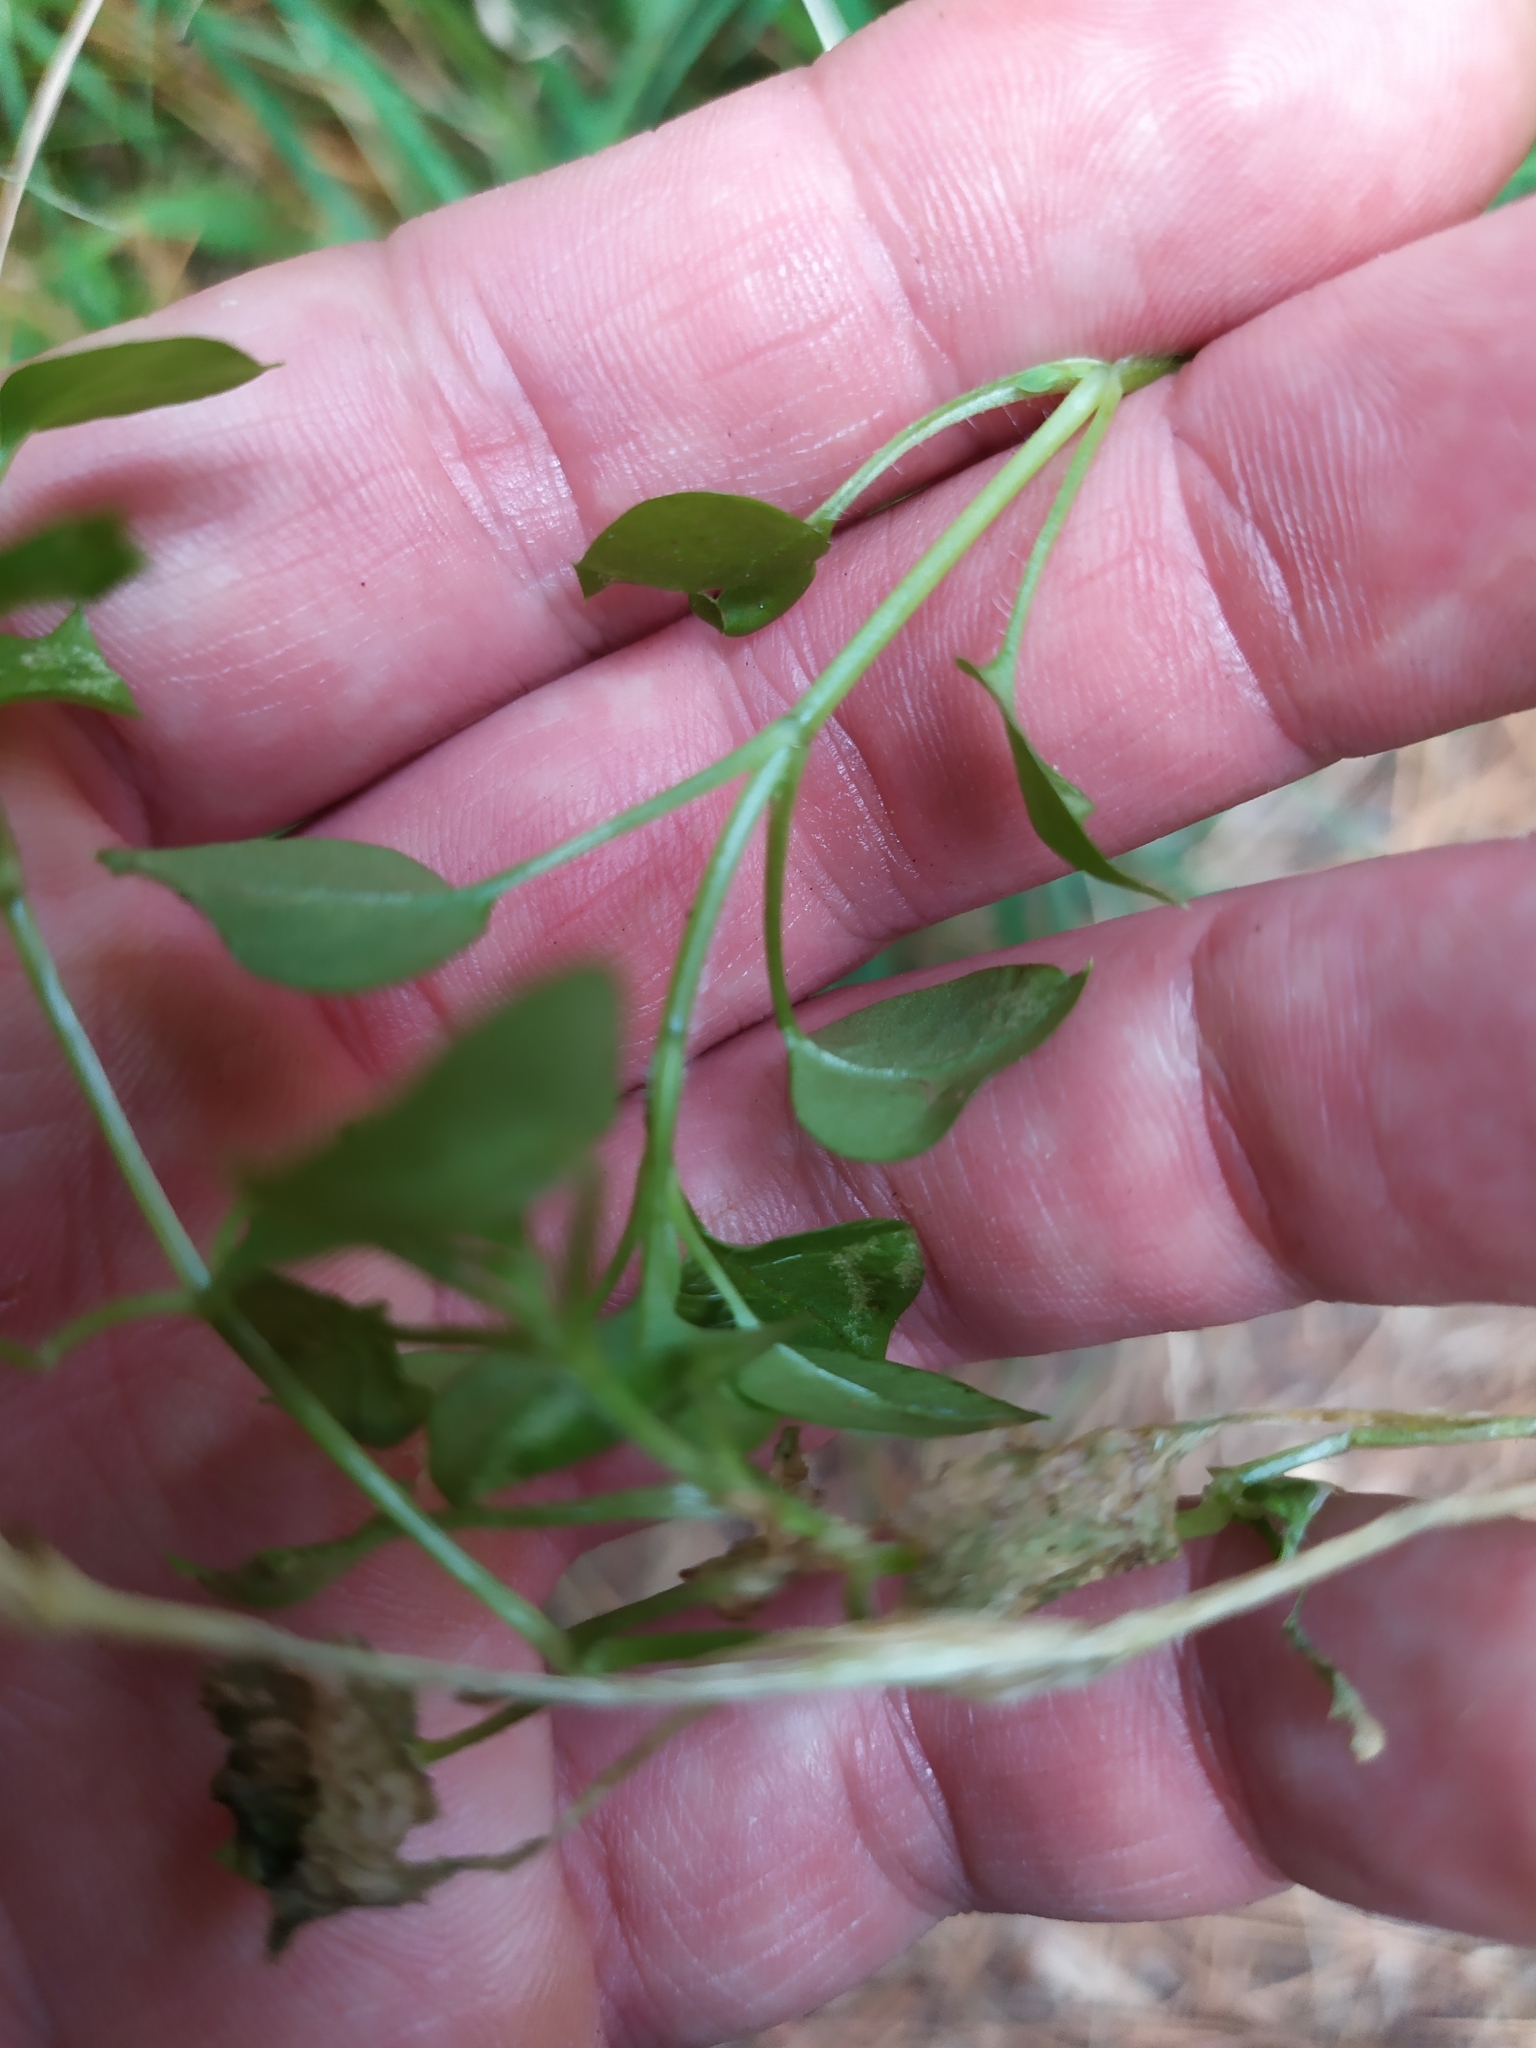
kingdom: Plantae
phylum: Tracheophyta
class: Magnoliopsida
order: Caryophyllales
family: Caryophyllaceae
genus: Stellaria
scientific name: Stellaria media
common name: Common chickweed
